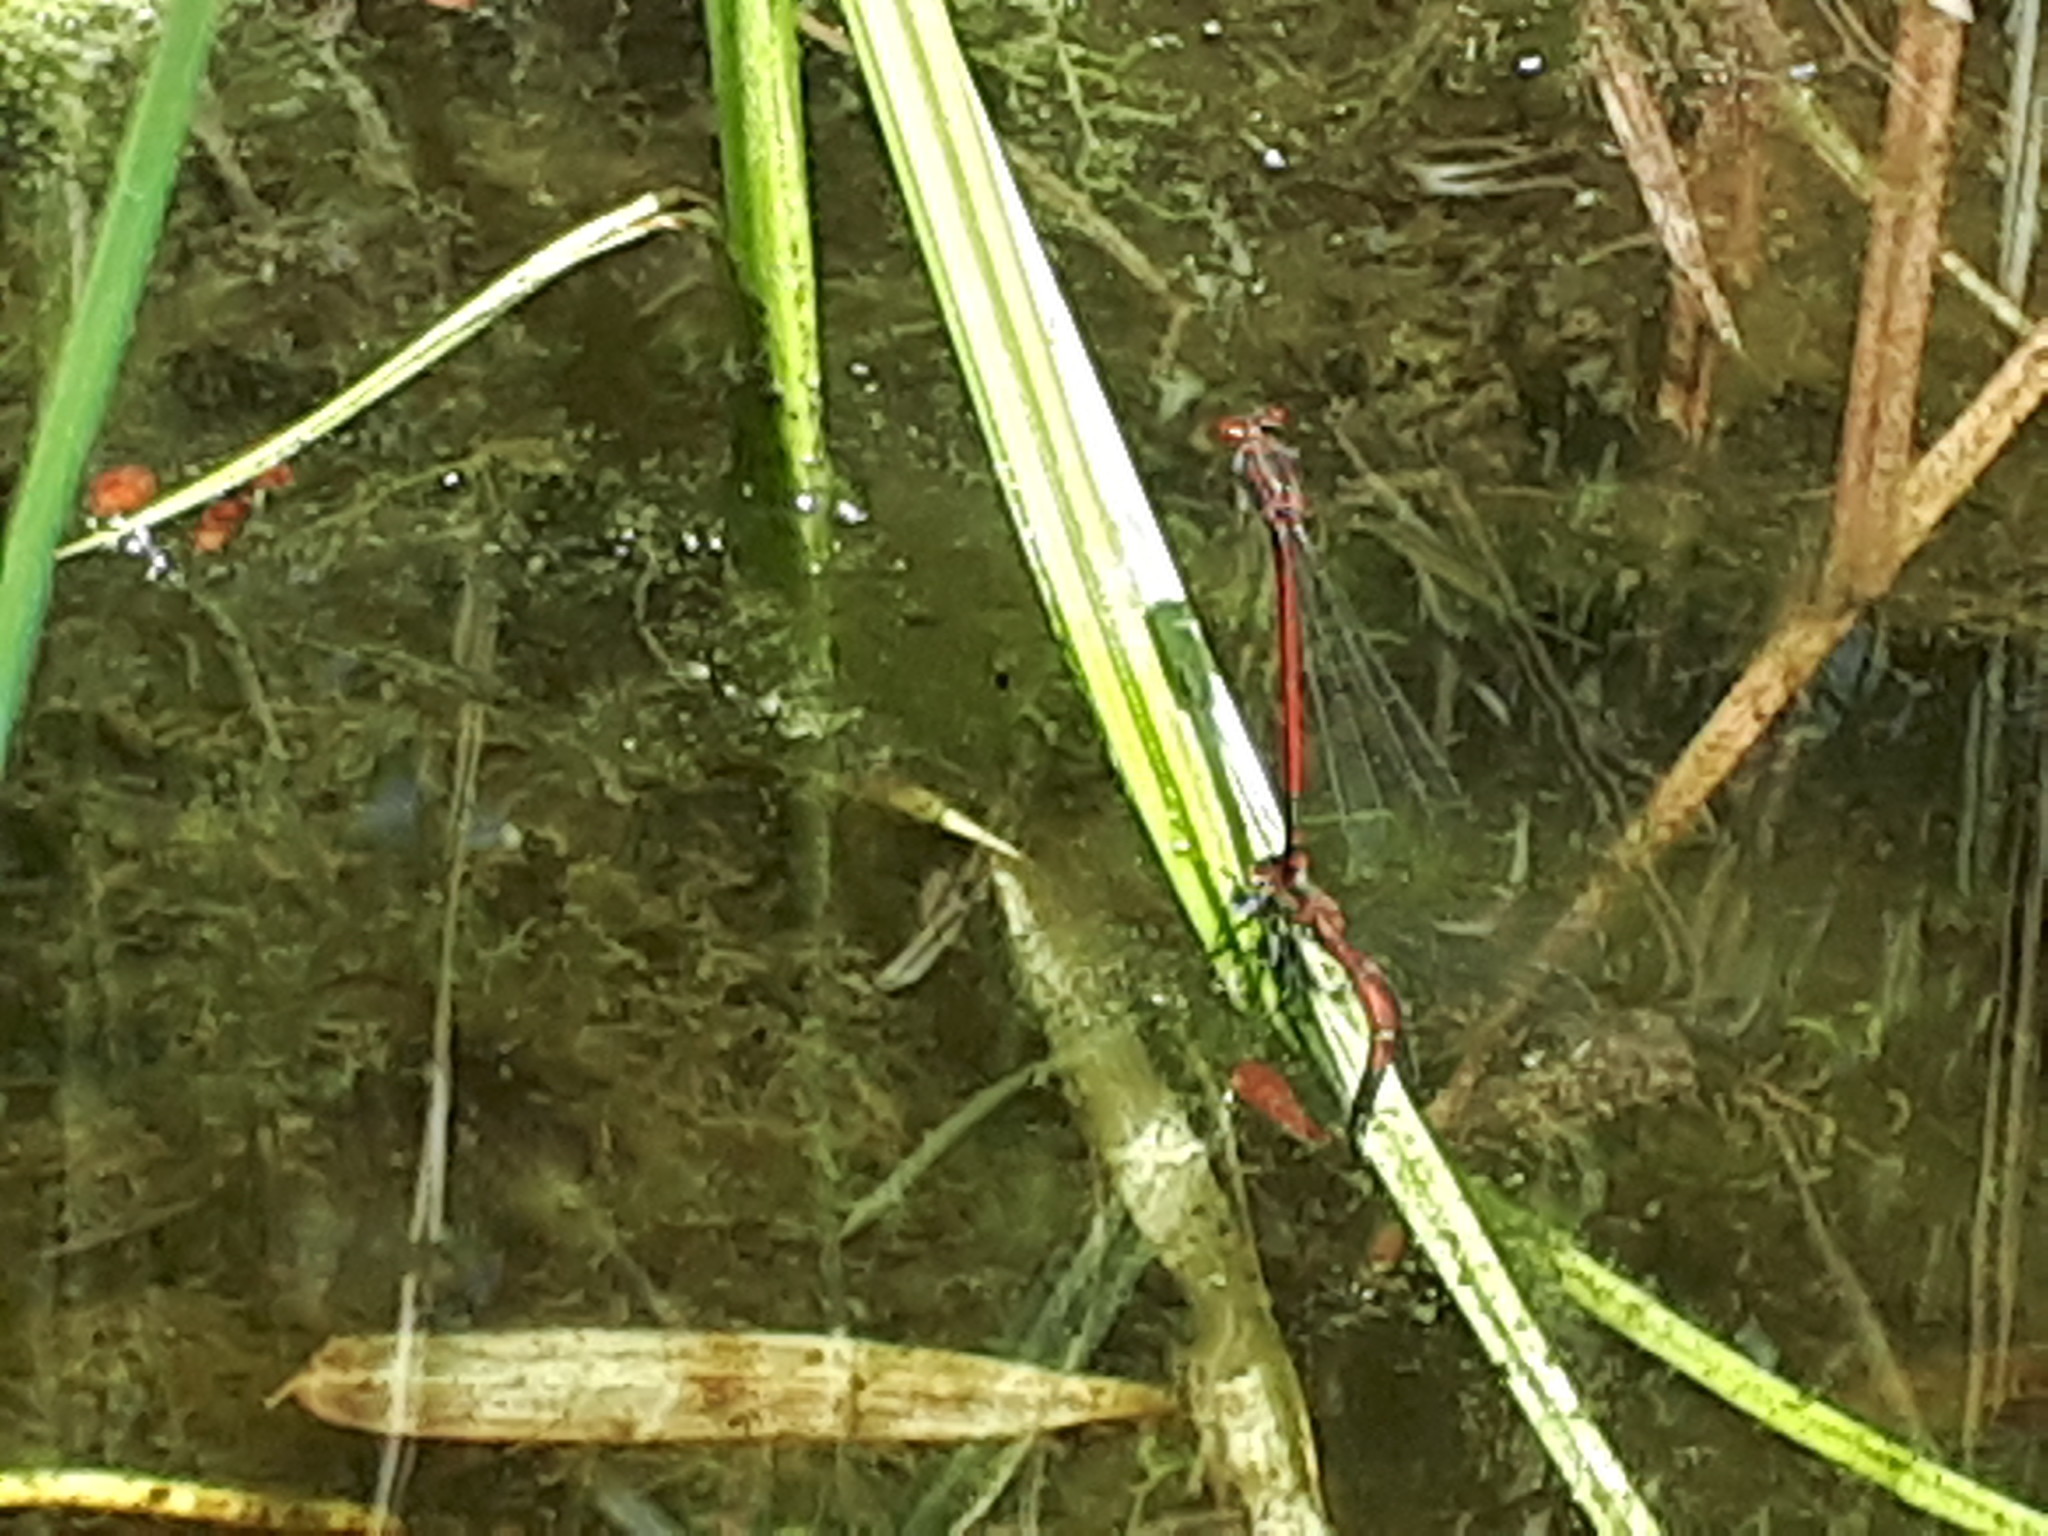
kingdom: Animalia
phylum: Arthropoda
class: Insecta
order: Odonata
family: Coenagrionidae
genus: Pyrrhosoma
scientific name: Pyrrhosoma nymphula
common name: Large red damsel
